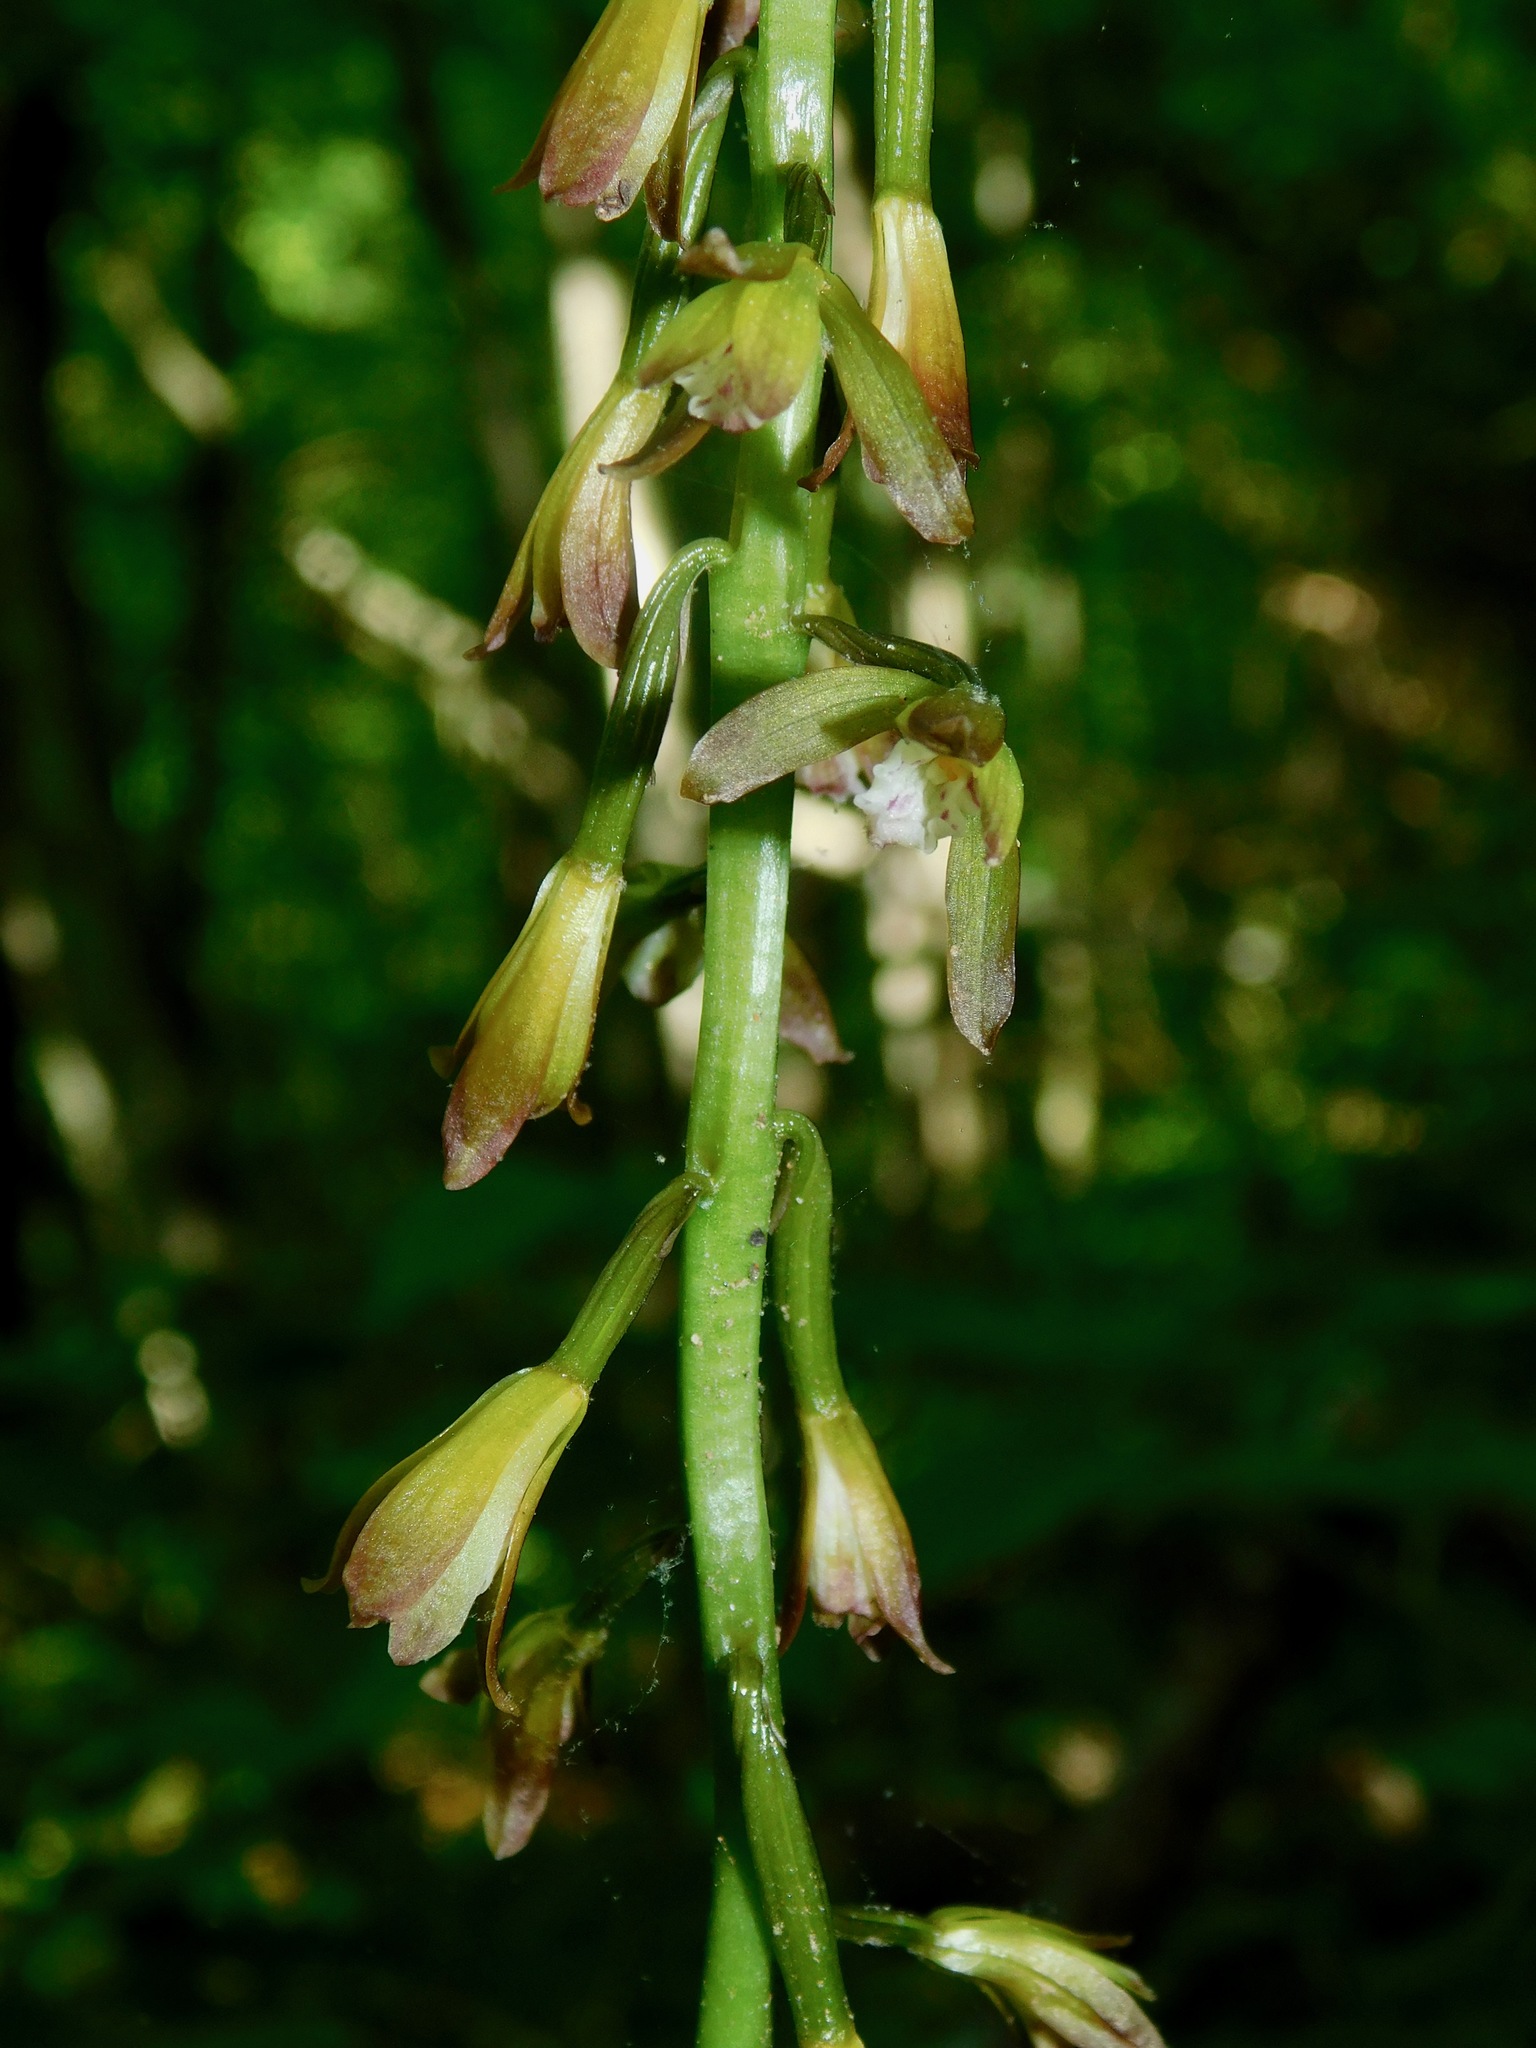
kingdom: Plantae
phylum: Tracheophyta
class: Liliopsida
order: Asparagales
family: Orchidaceae
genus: Aplectrum
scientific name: Aplectrum hyemale
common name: Adam-and-eve
